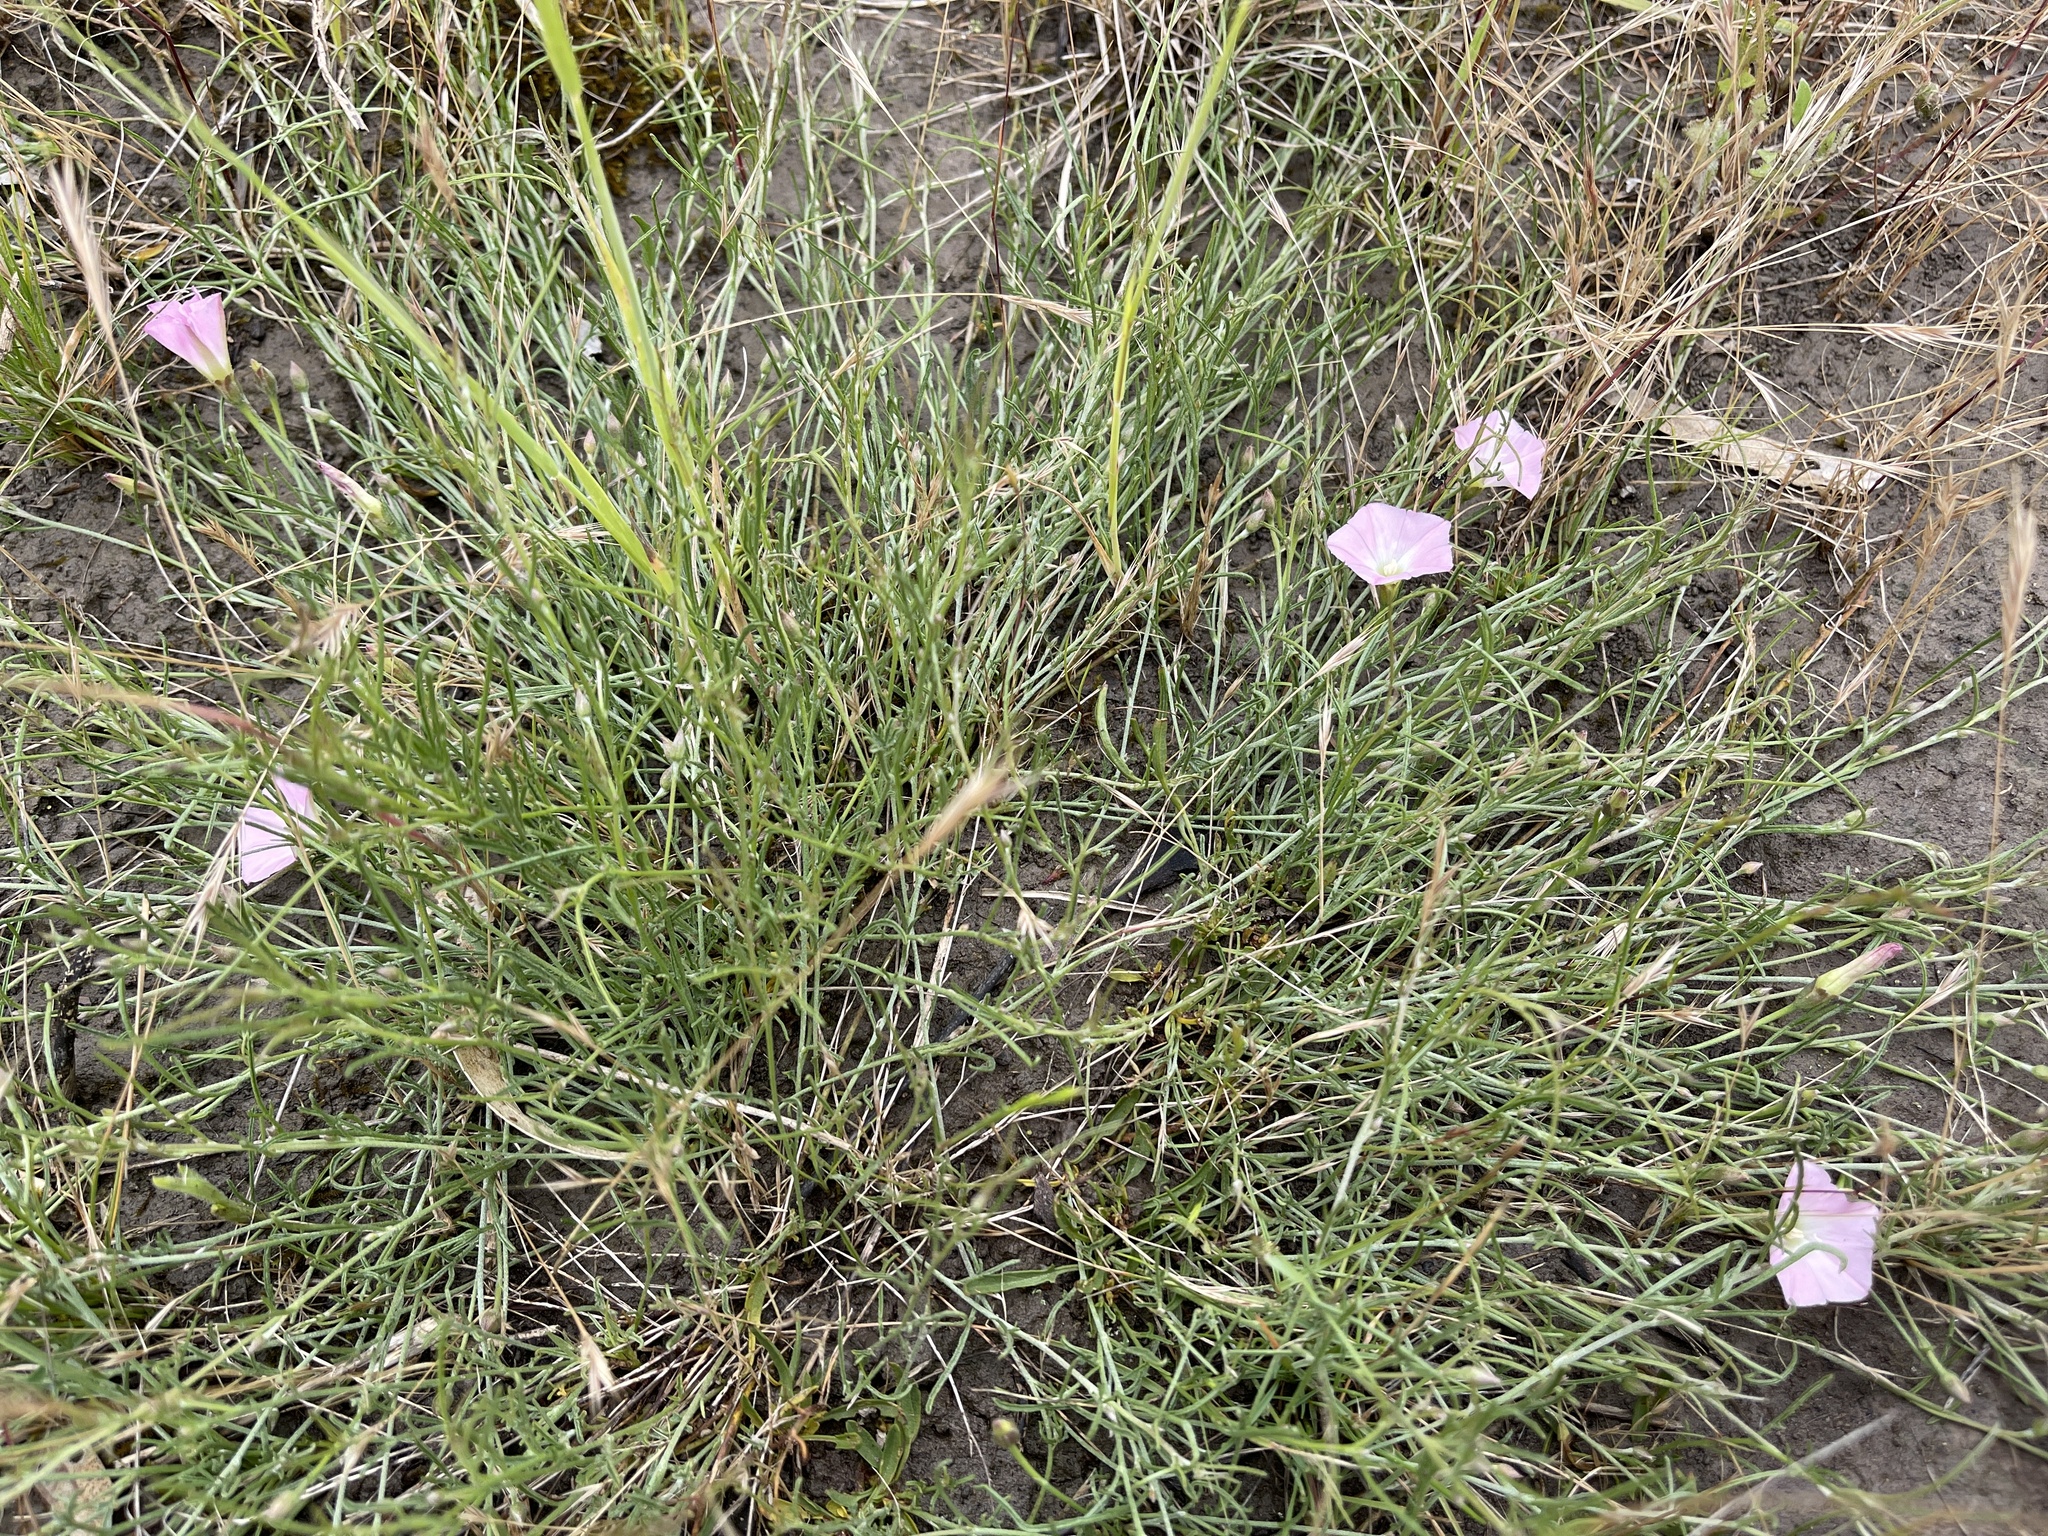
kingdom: Plantae
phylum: Tracheophyta
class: Magnoliopsida
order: Solanales
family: Convolvulaceae
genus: Convolvulus
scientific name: Convolvulus angustissimus
